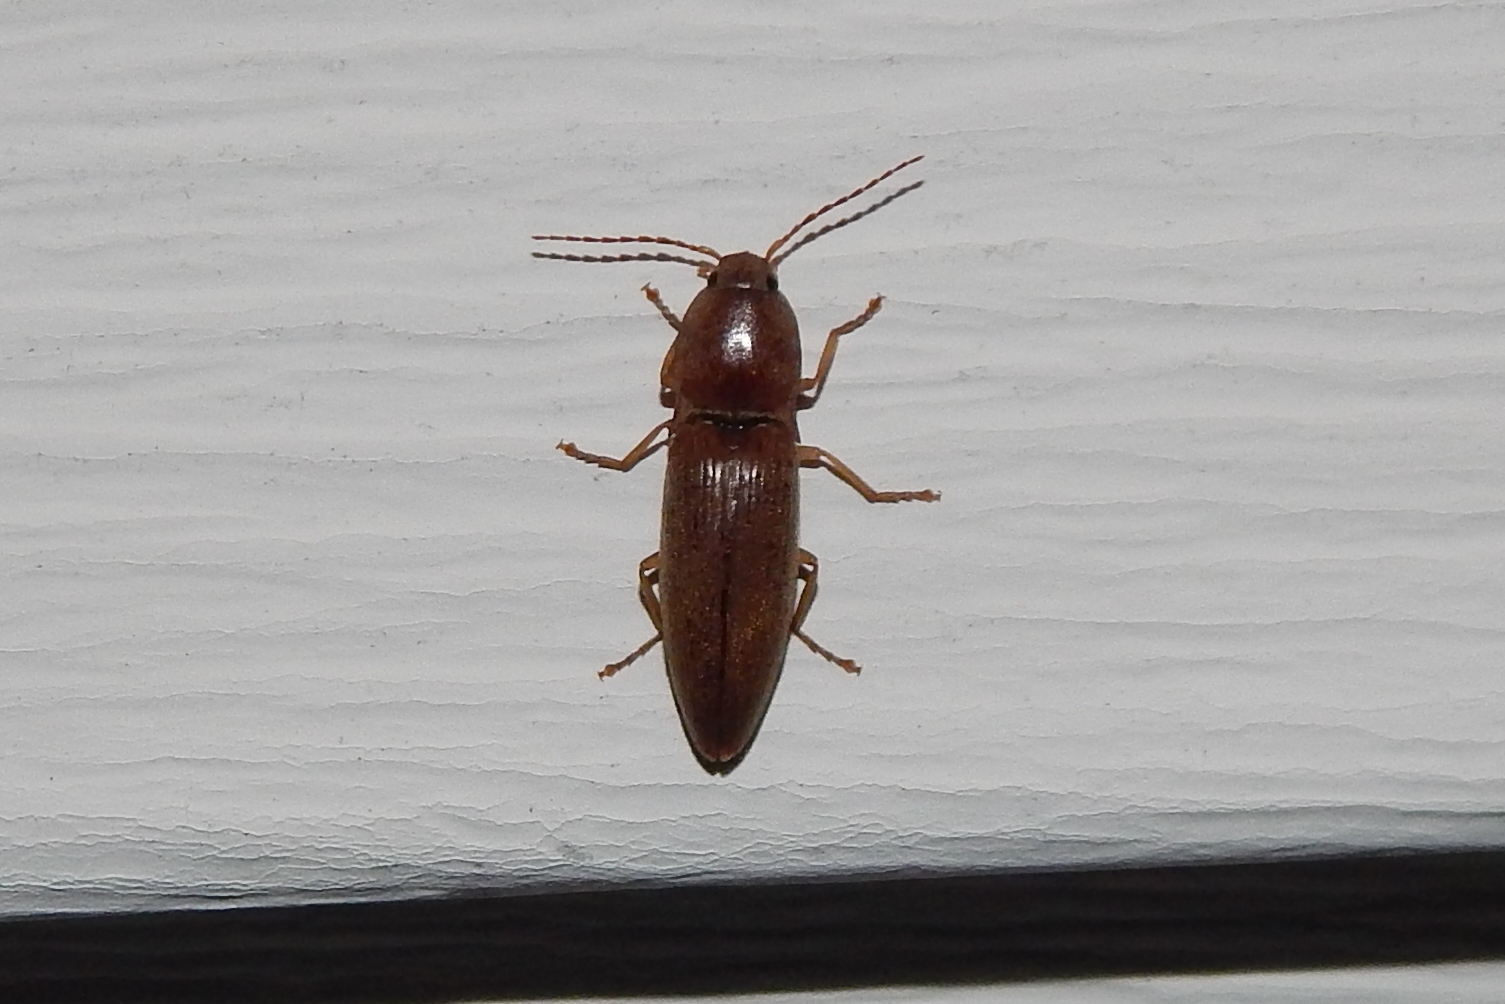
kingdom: Animalia
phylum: Arthropoda
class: Insecta
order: Coleoptera
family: Elateridae
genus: Monocrepidius
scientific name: Monocrepidius lividus
